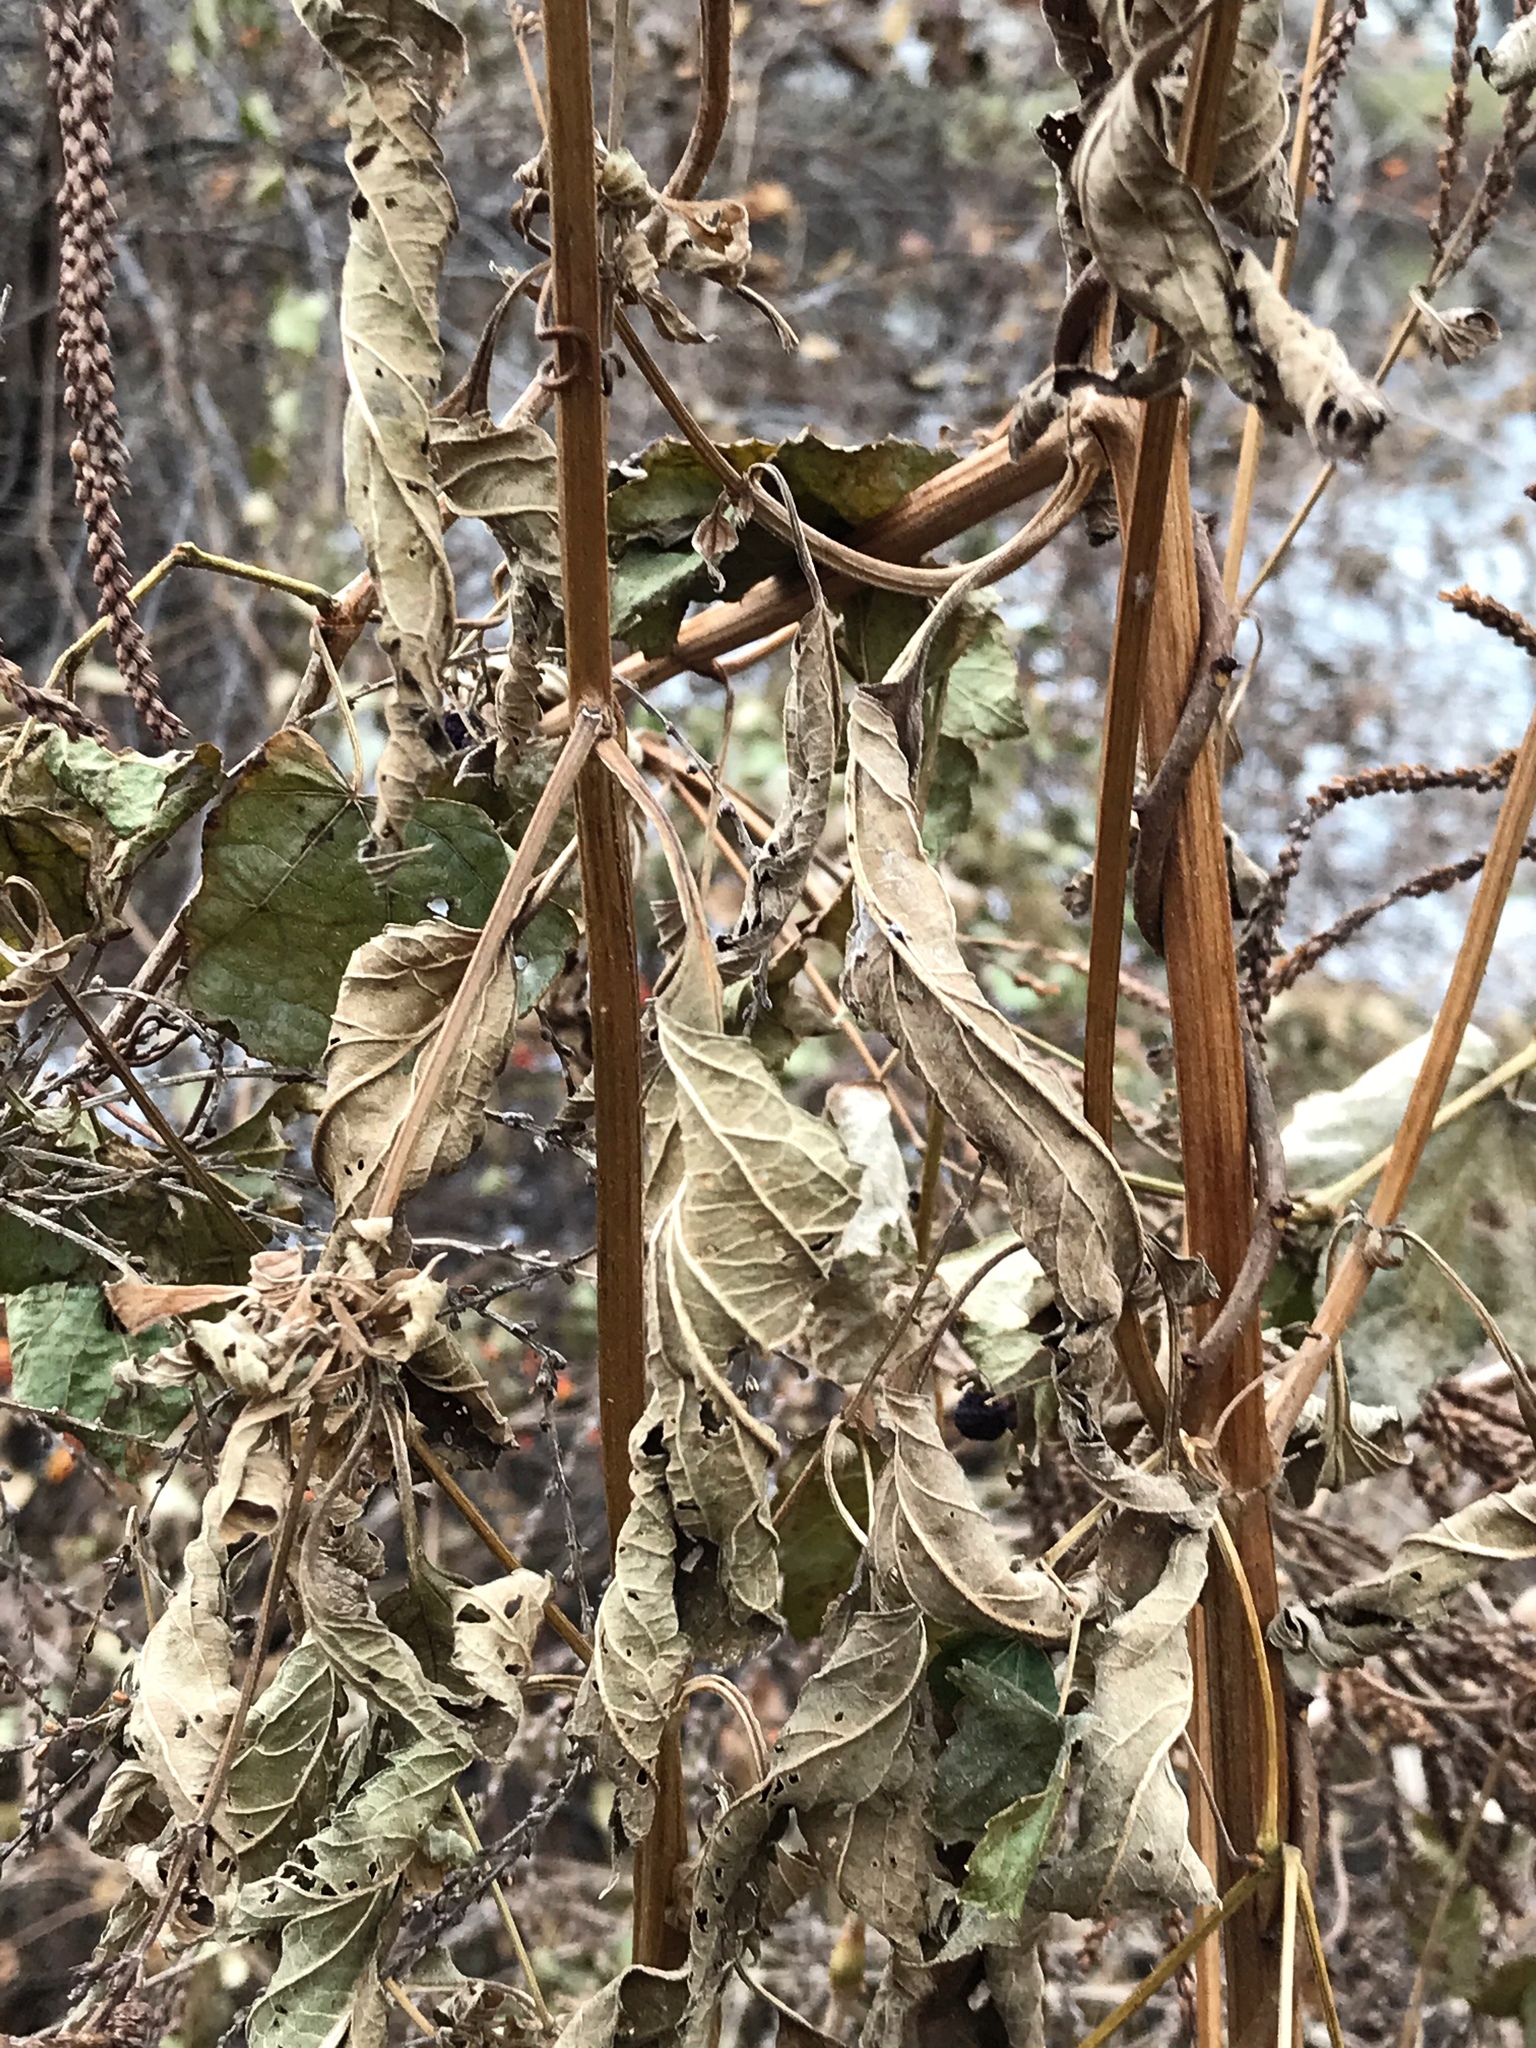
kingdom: Plantae
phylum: Tracheophyta
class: Magnoliopsida
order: Lamiales
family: Verbenaceae
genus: Verbena
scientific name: Verbena hastata
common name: American blue vervain
